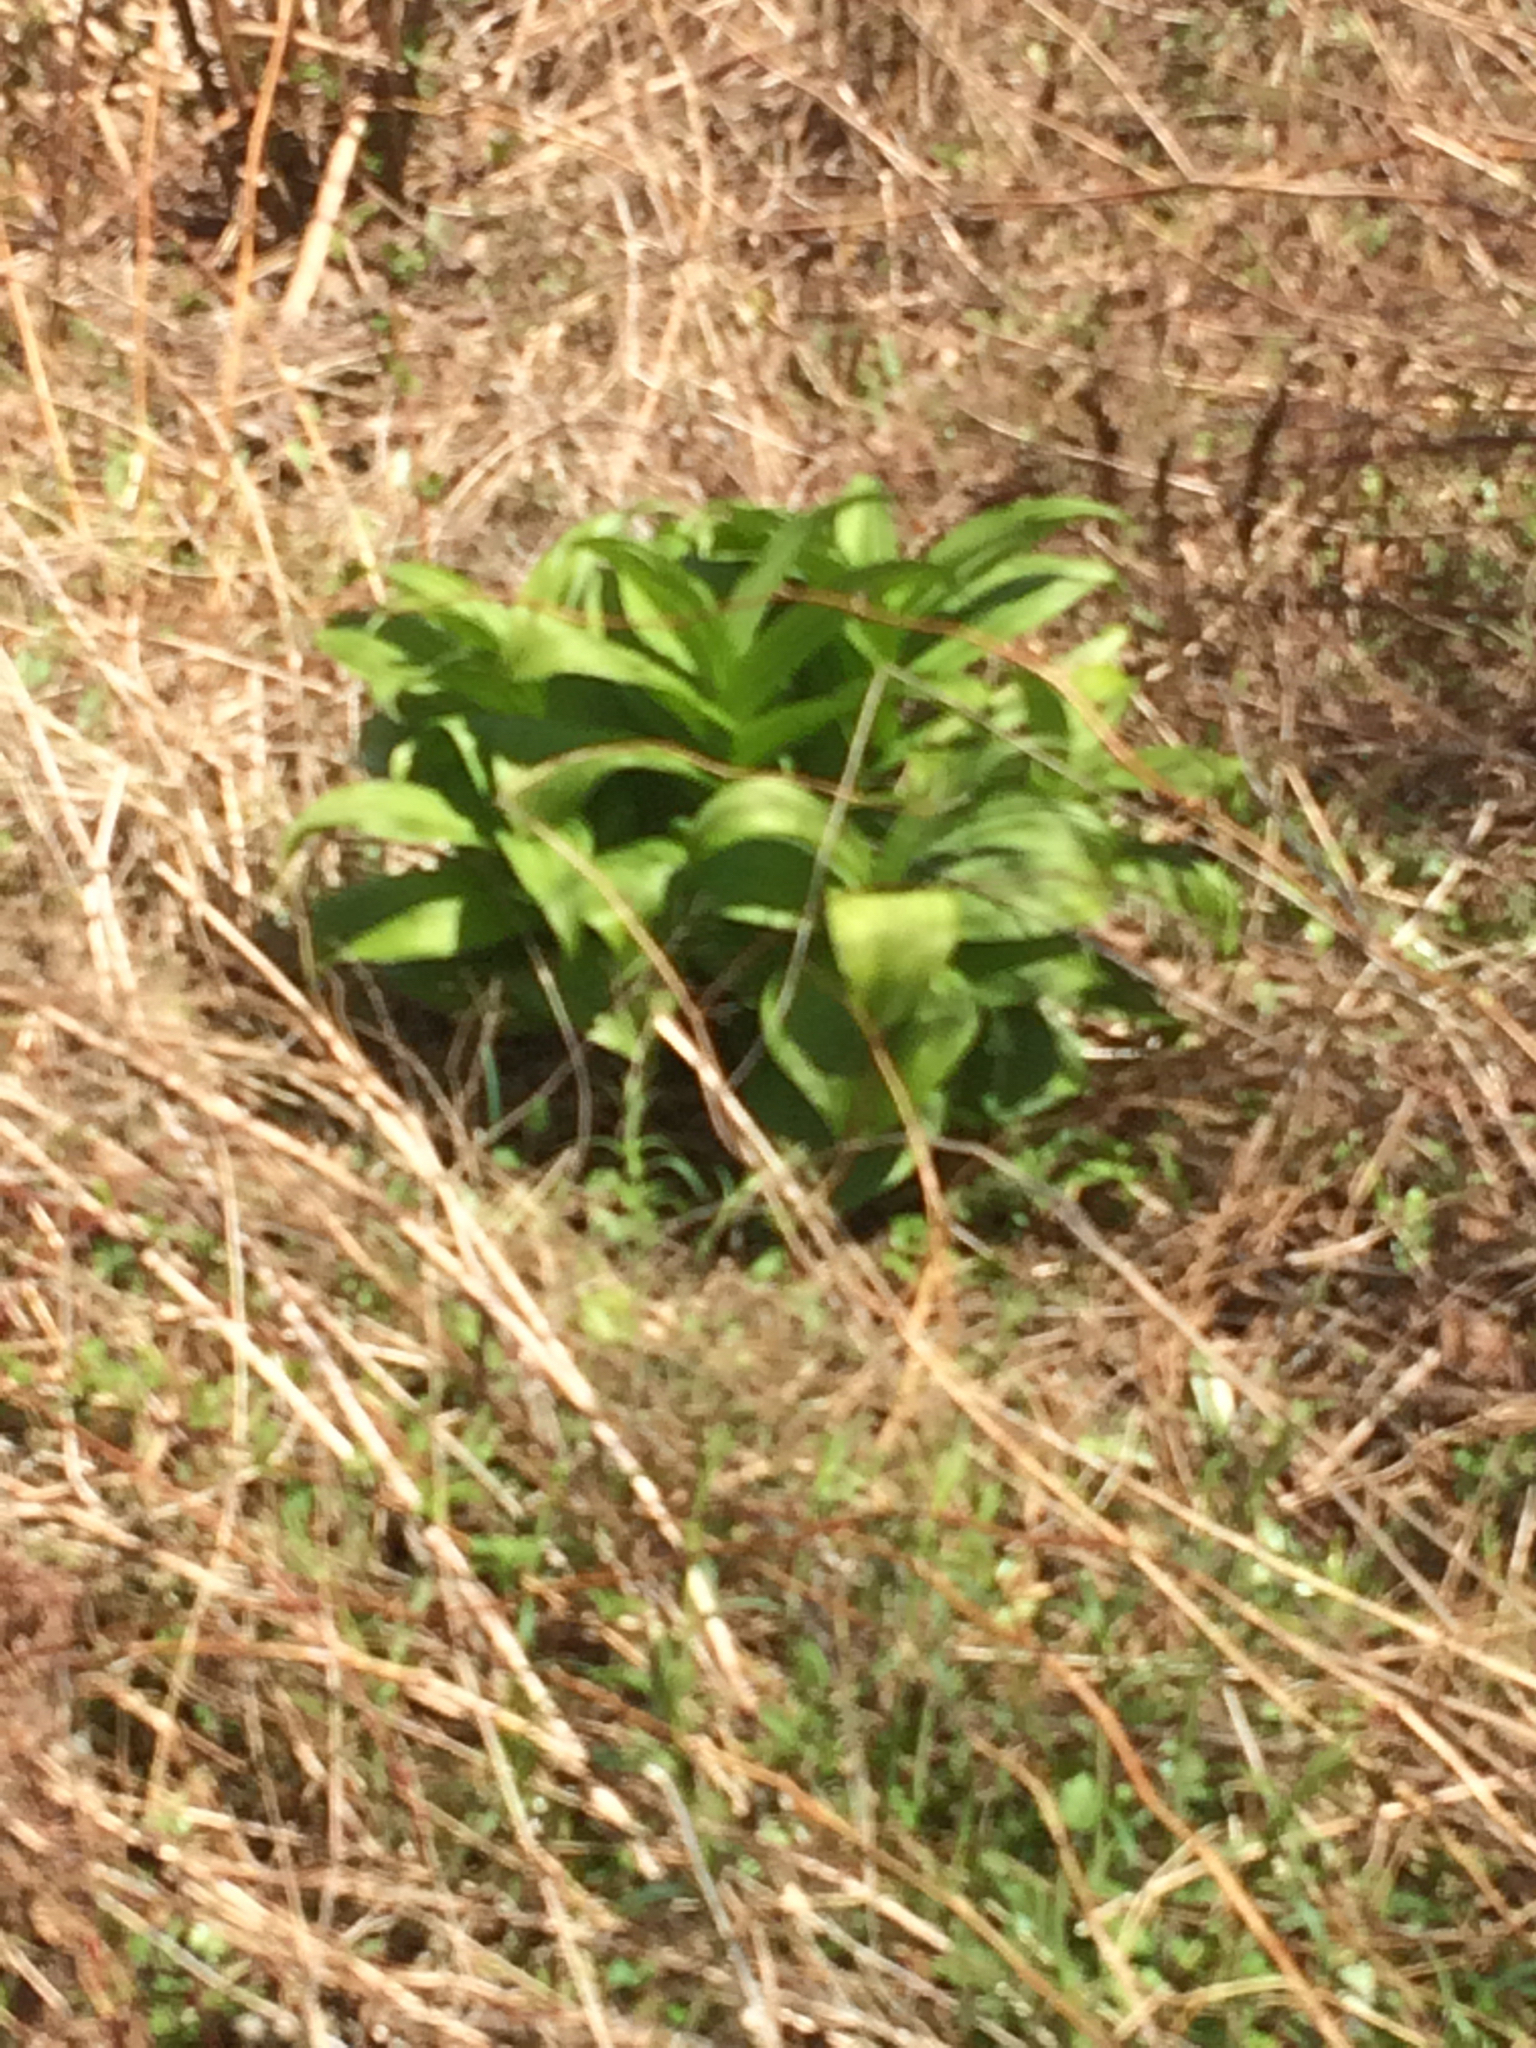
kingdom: Plantae
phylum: Tracheophyta
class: Liliopsida
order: Liliales
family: Melanthiaceae
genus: Veratrum
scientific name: Veratrum viride
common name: American false hellebore
